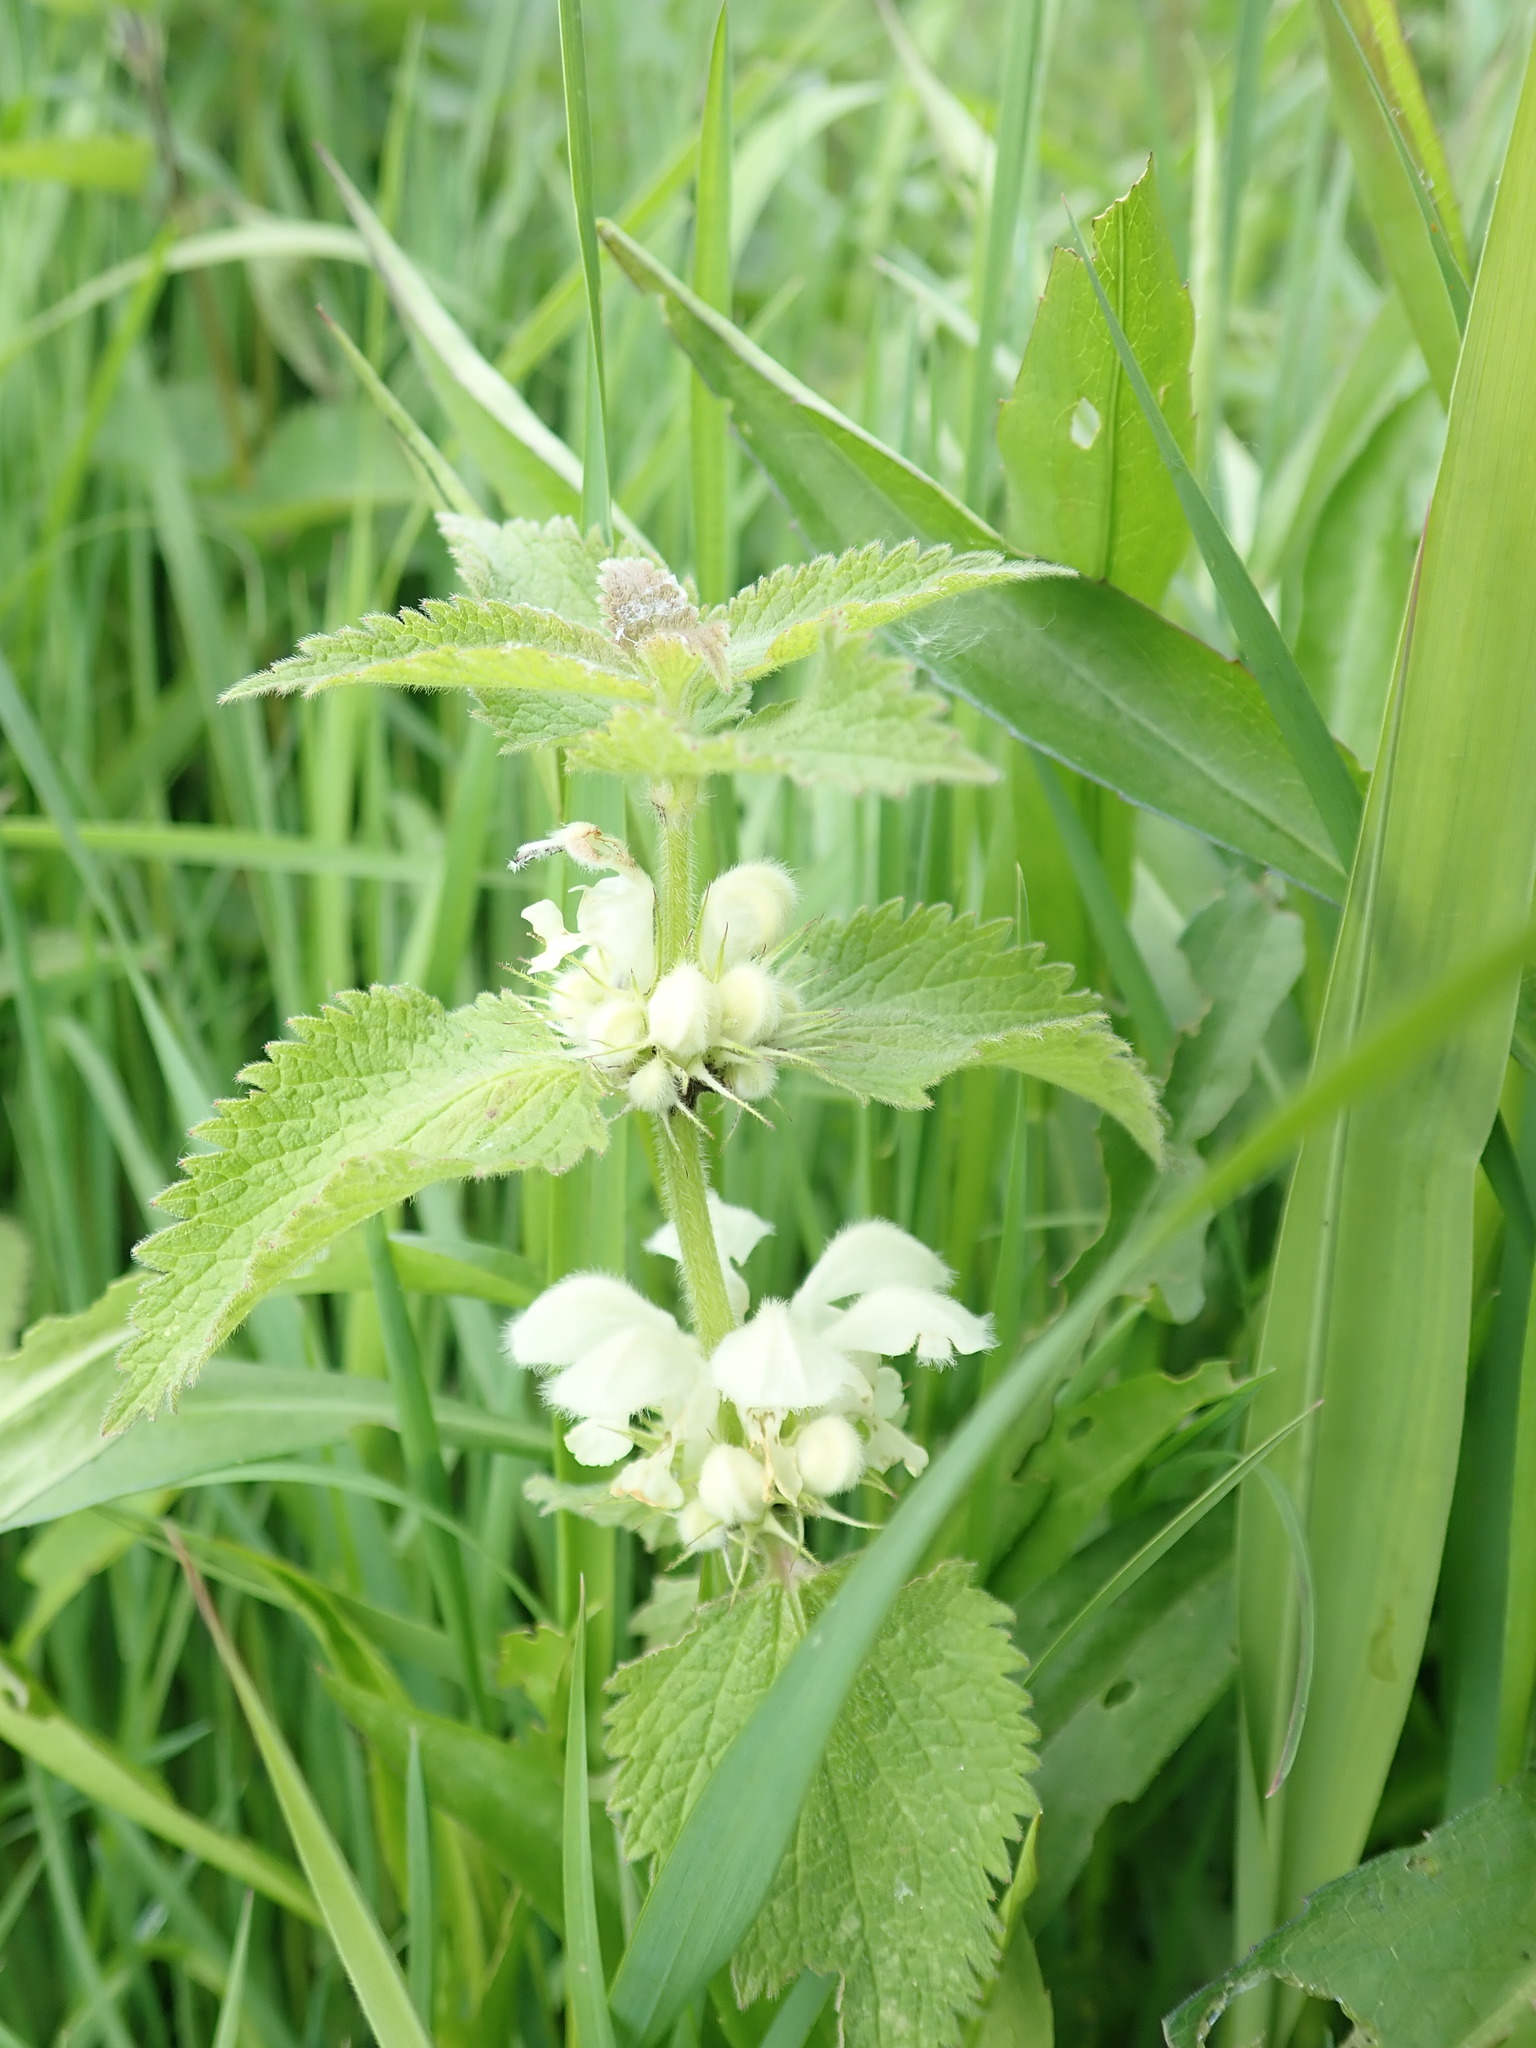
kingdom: Plantae
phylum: Tracheophyta
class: Magnoliopsida
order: Lamiales
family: Lamiaceae
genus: Lamium
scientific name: Lamium album
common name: White dead-nettle
